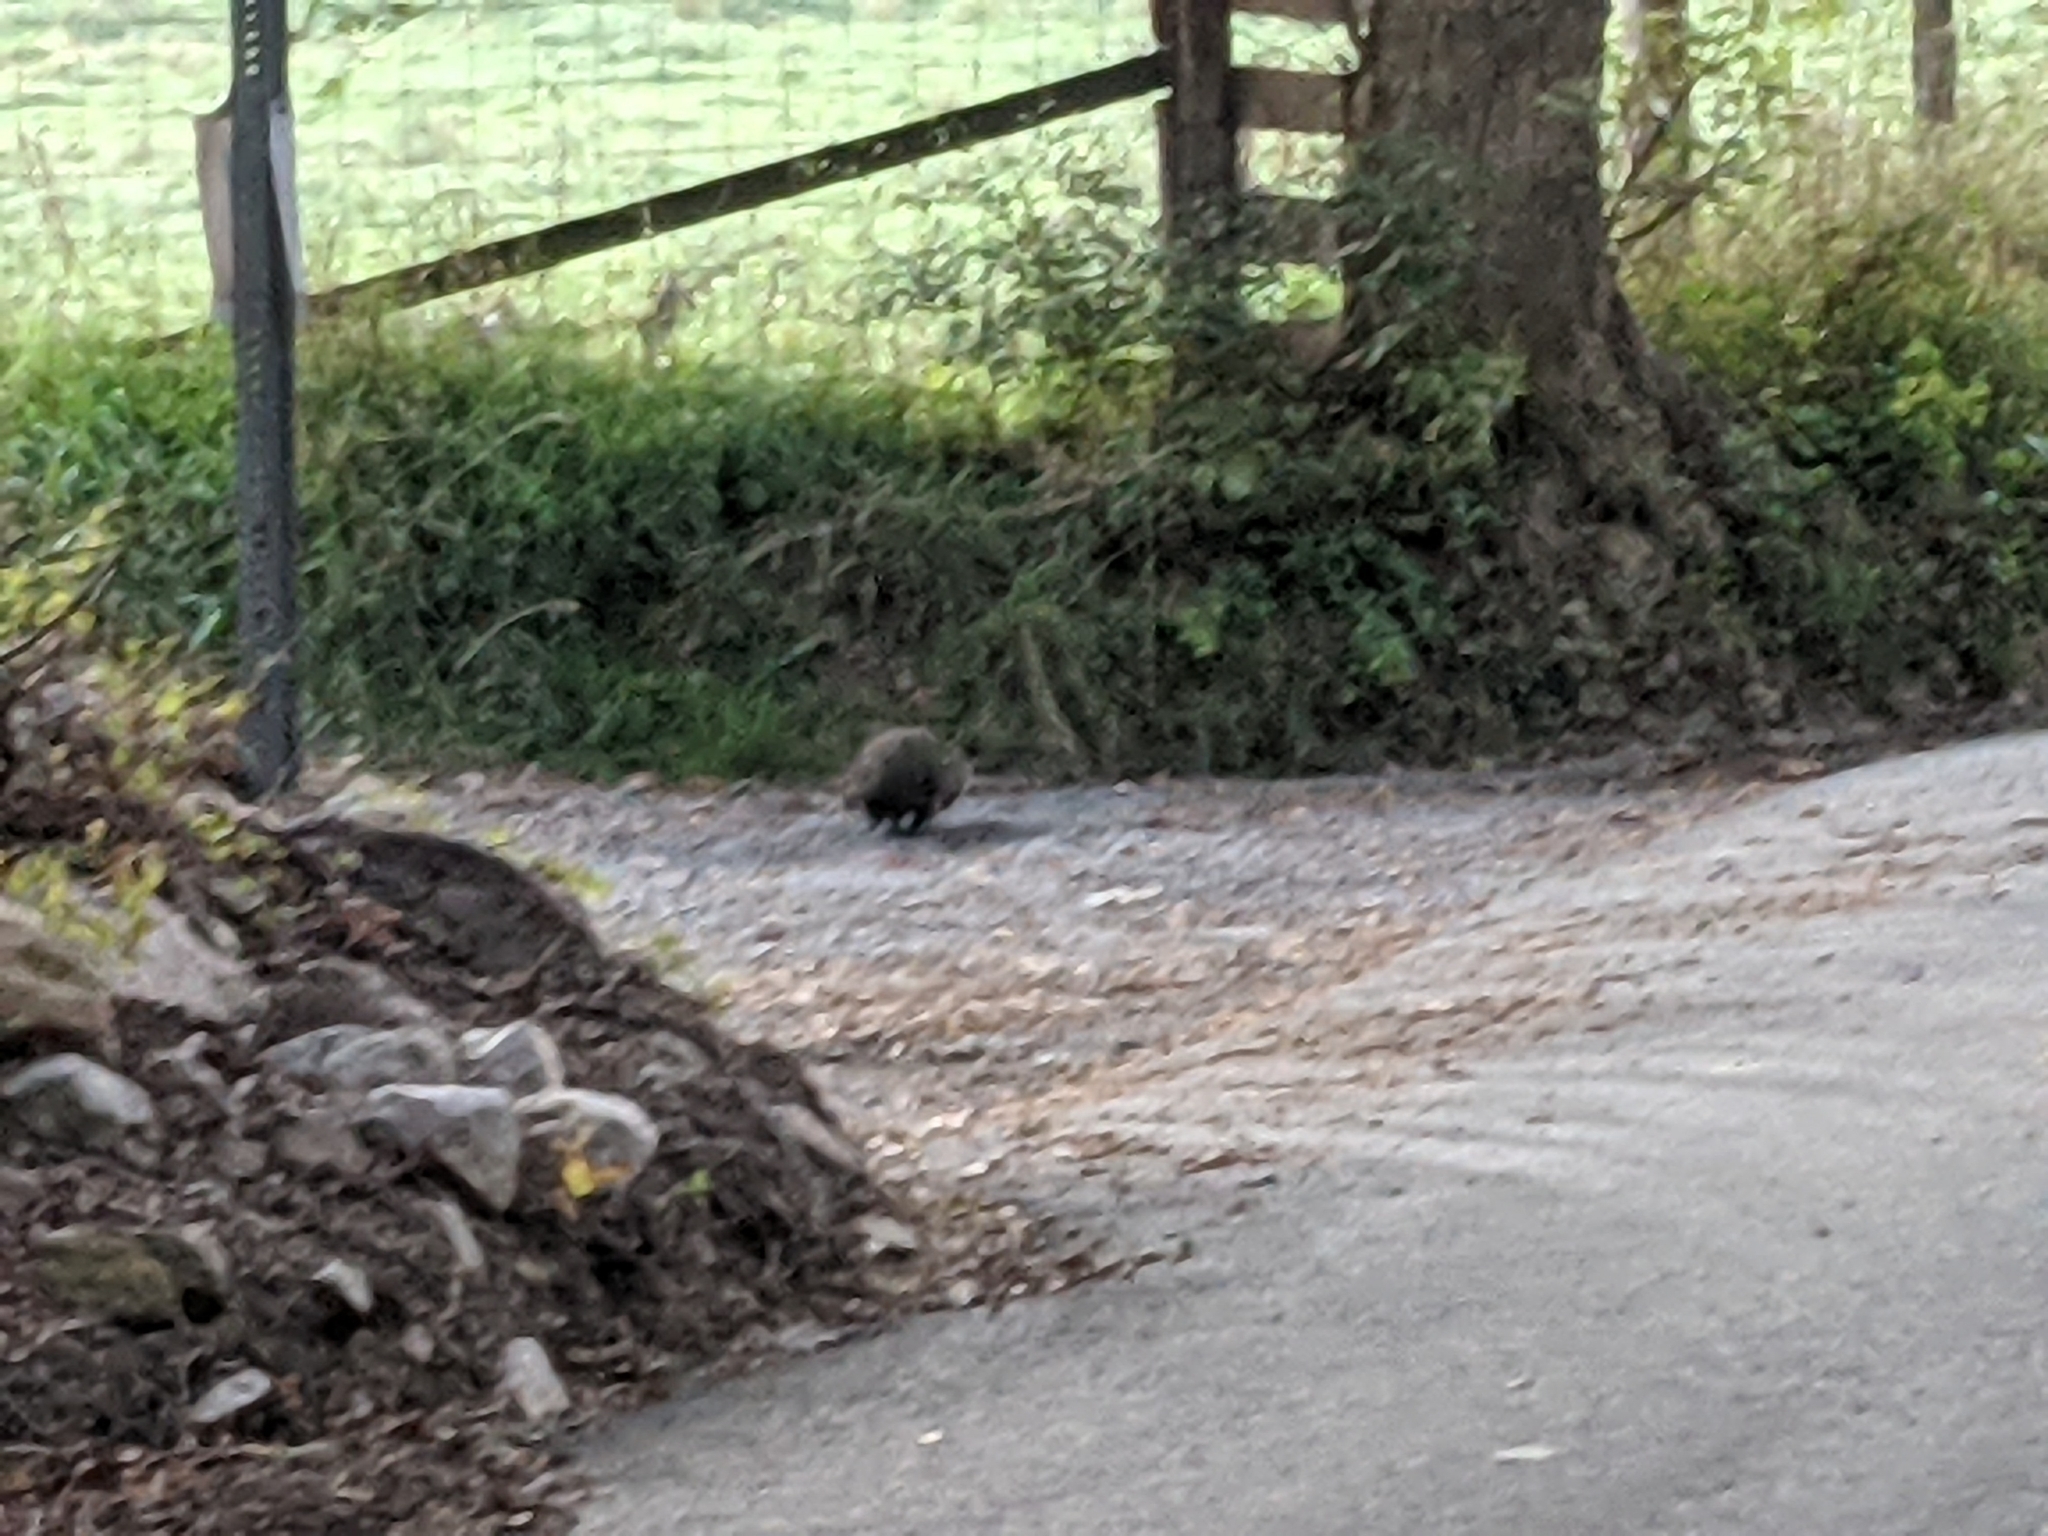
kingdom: Animalia
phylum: Chordata
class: Mammalia
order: Rodentia
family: Sciuridae
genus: Marmota
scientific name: Marmota monax
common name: Groundhog
